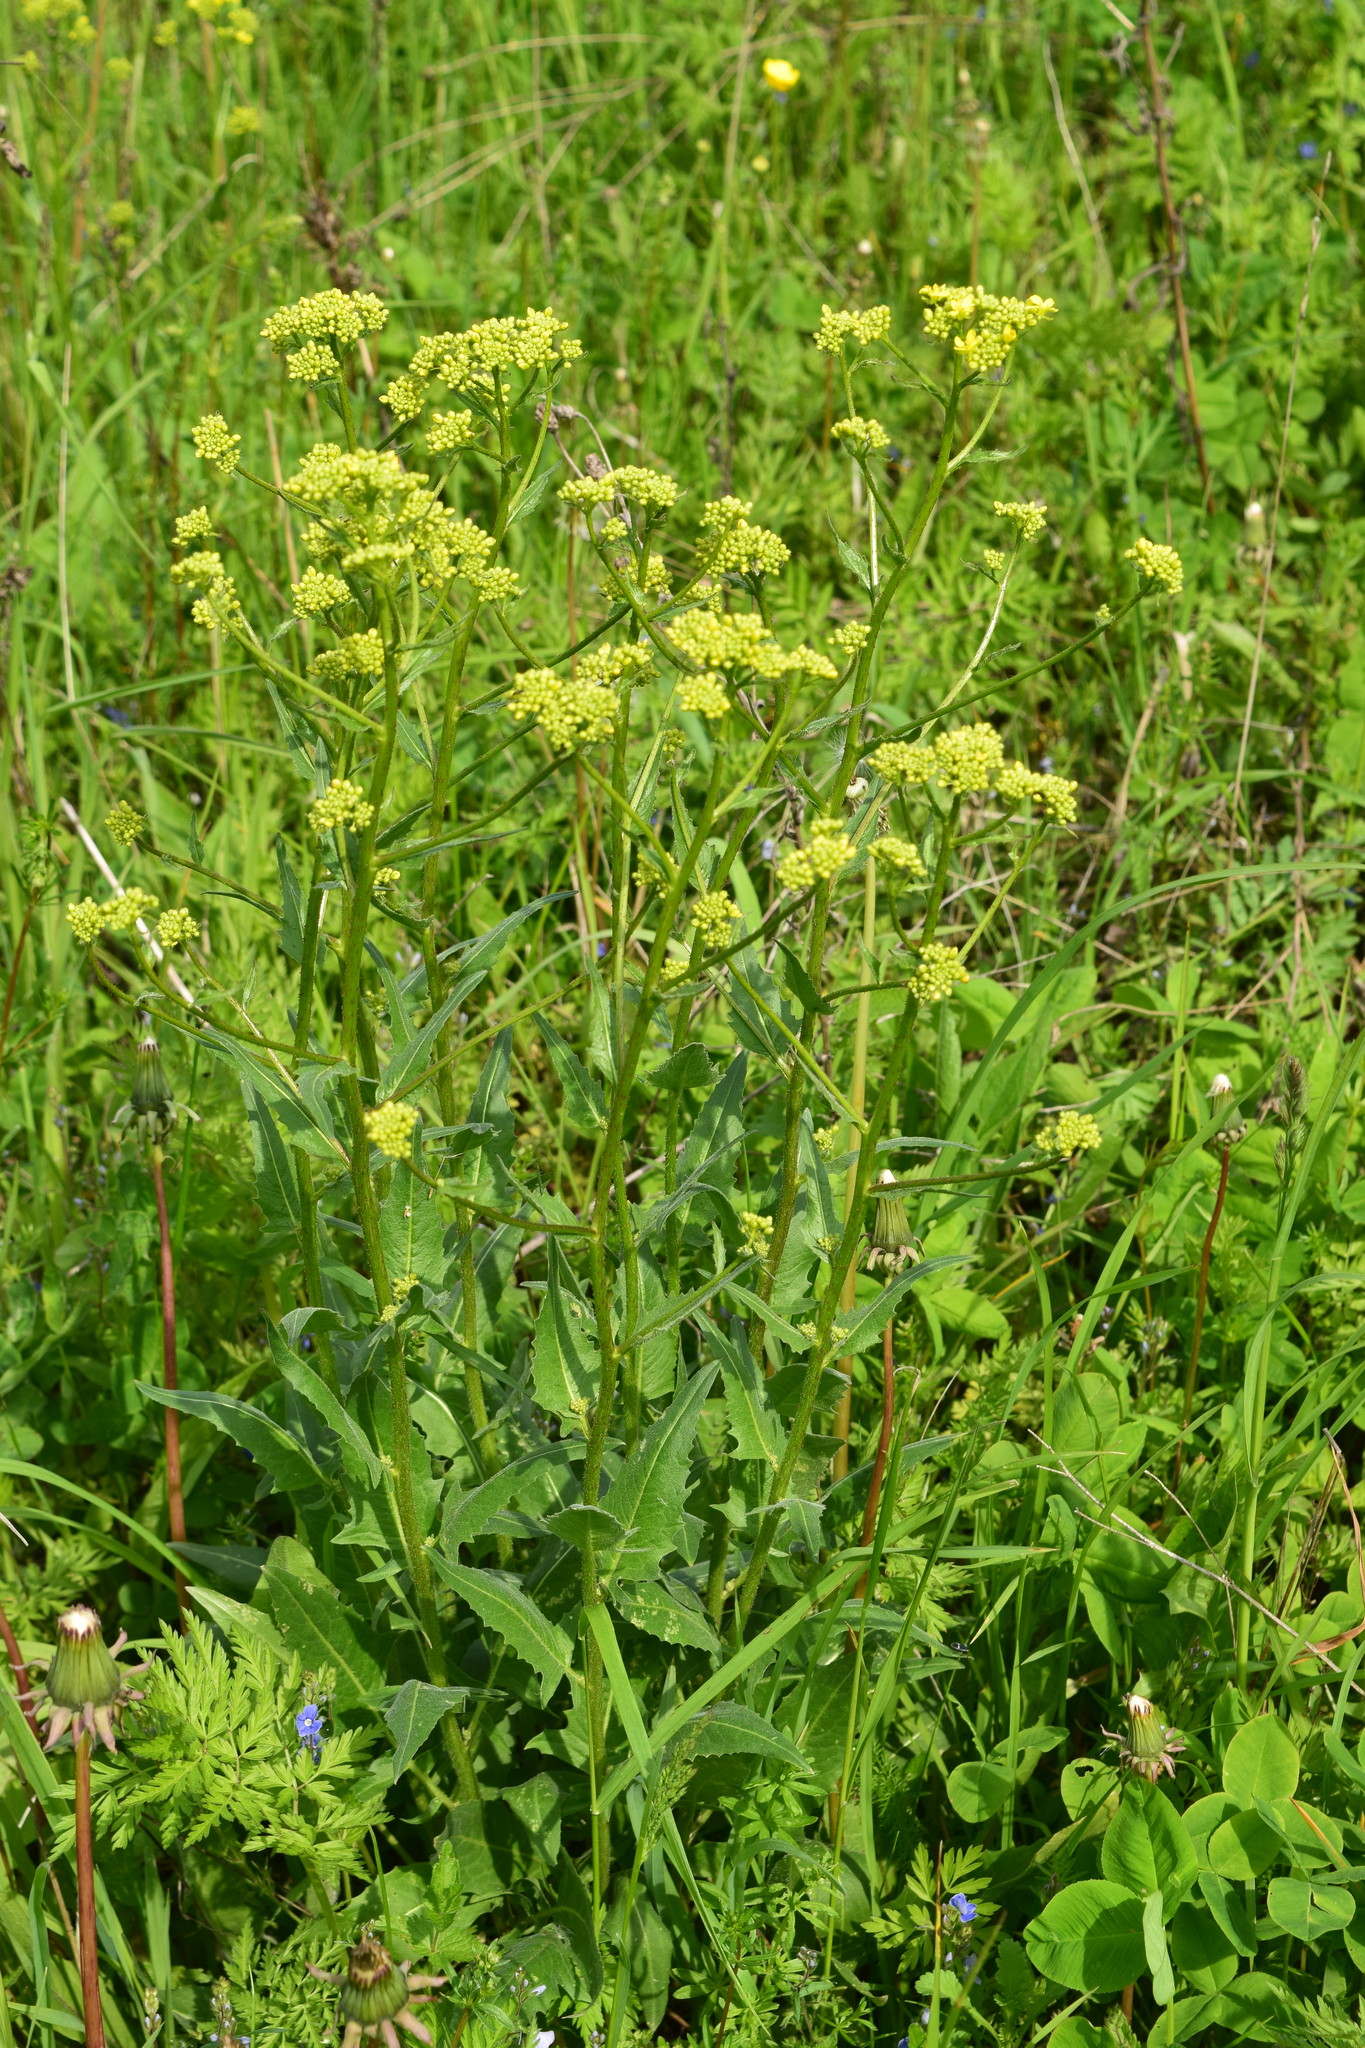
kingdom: Plantae
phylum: Tracheophyta
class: Magnoliopsida
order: Brassicales
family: Brassicaceae
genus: Bunias
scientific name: Bunias orientalis
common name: Warty-cabbage
